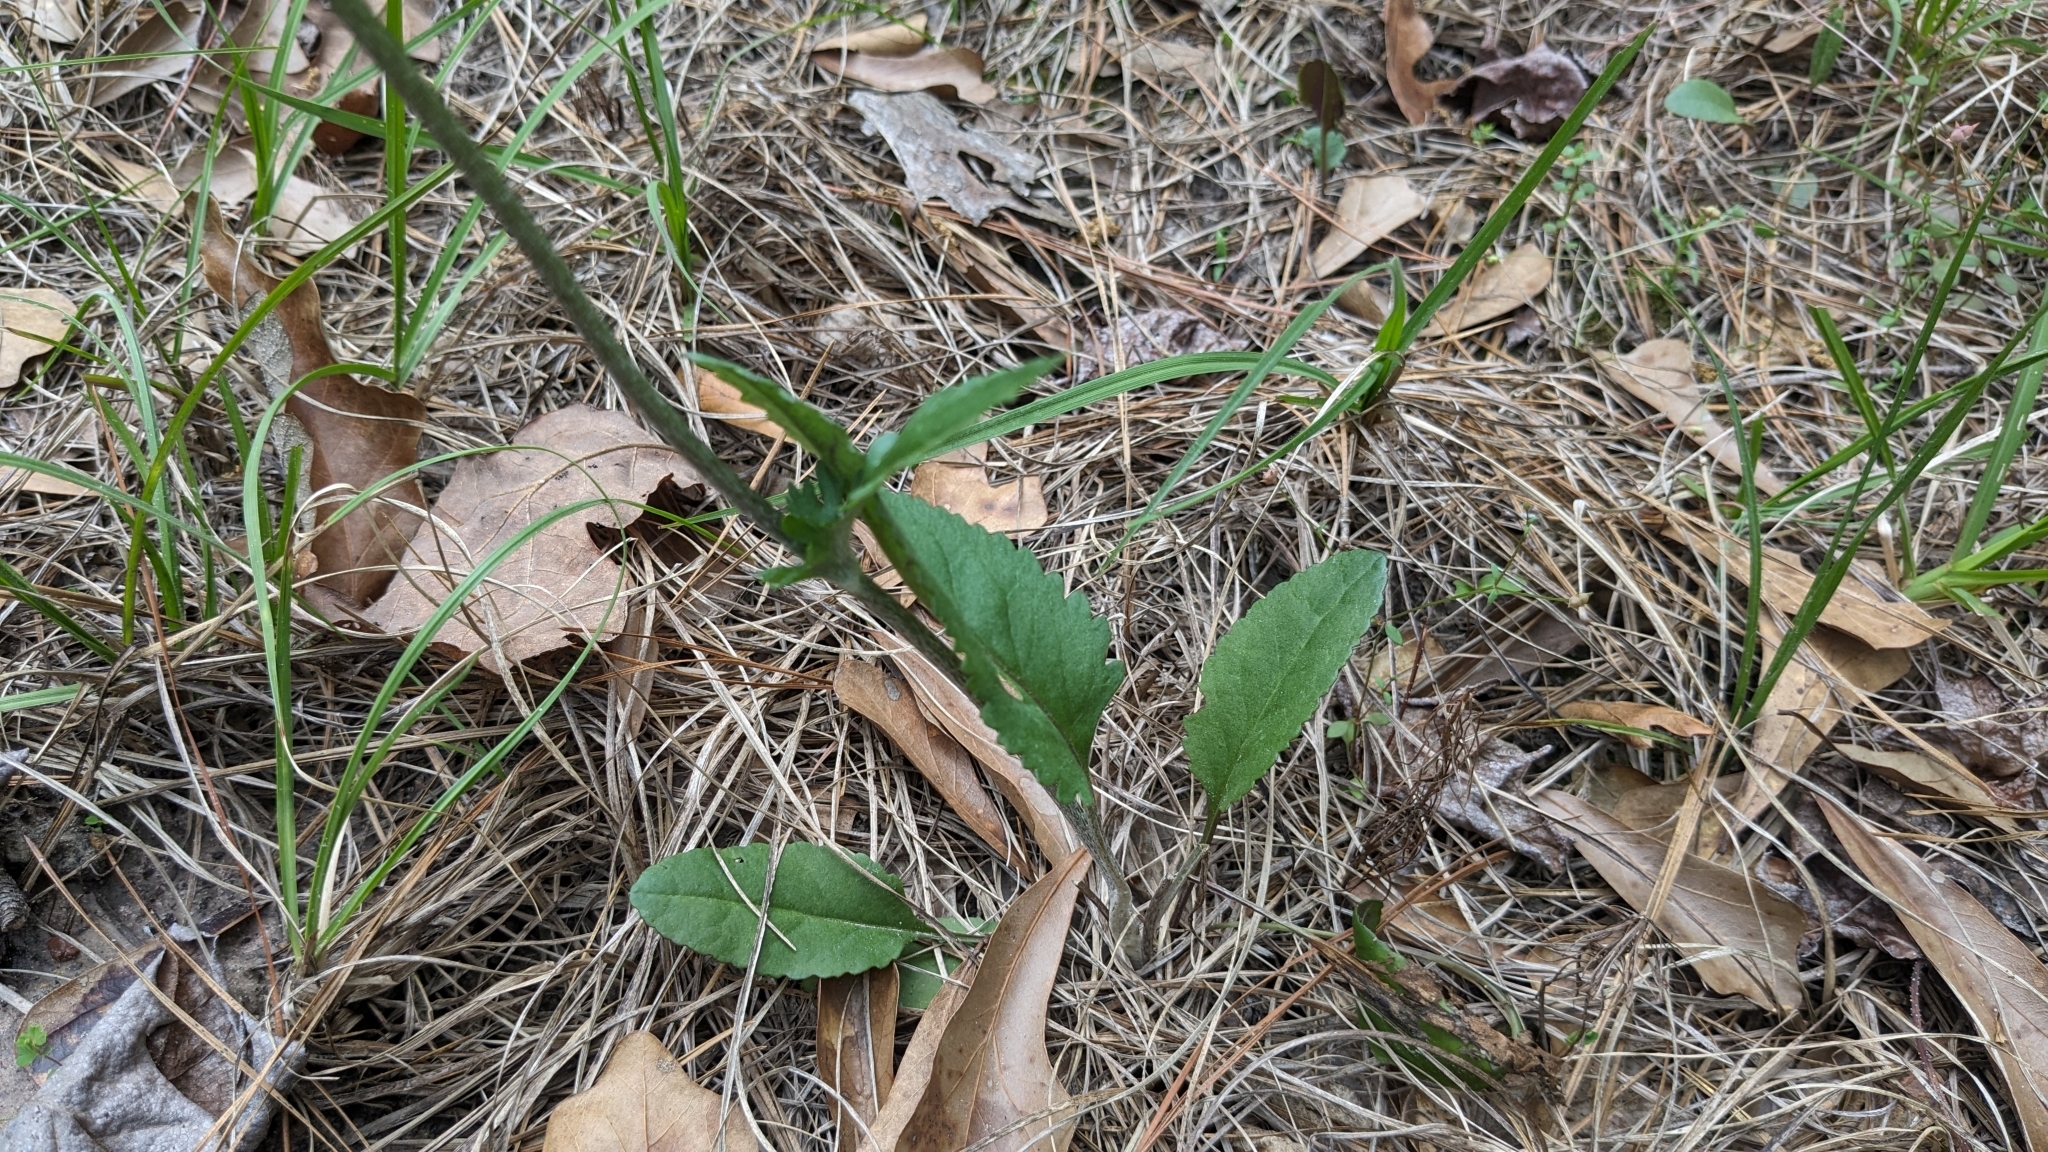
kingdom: Plantae
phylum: Tracheophyta
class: Magnoliopsida
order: Asterales
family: Asteraceae
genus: Packera
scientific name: Packera dubia
